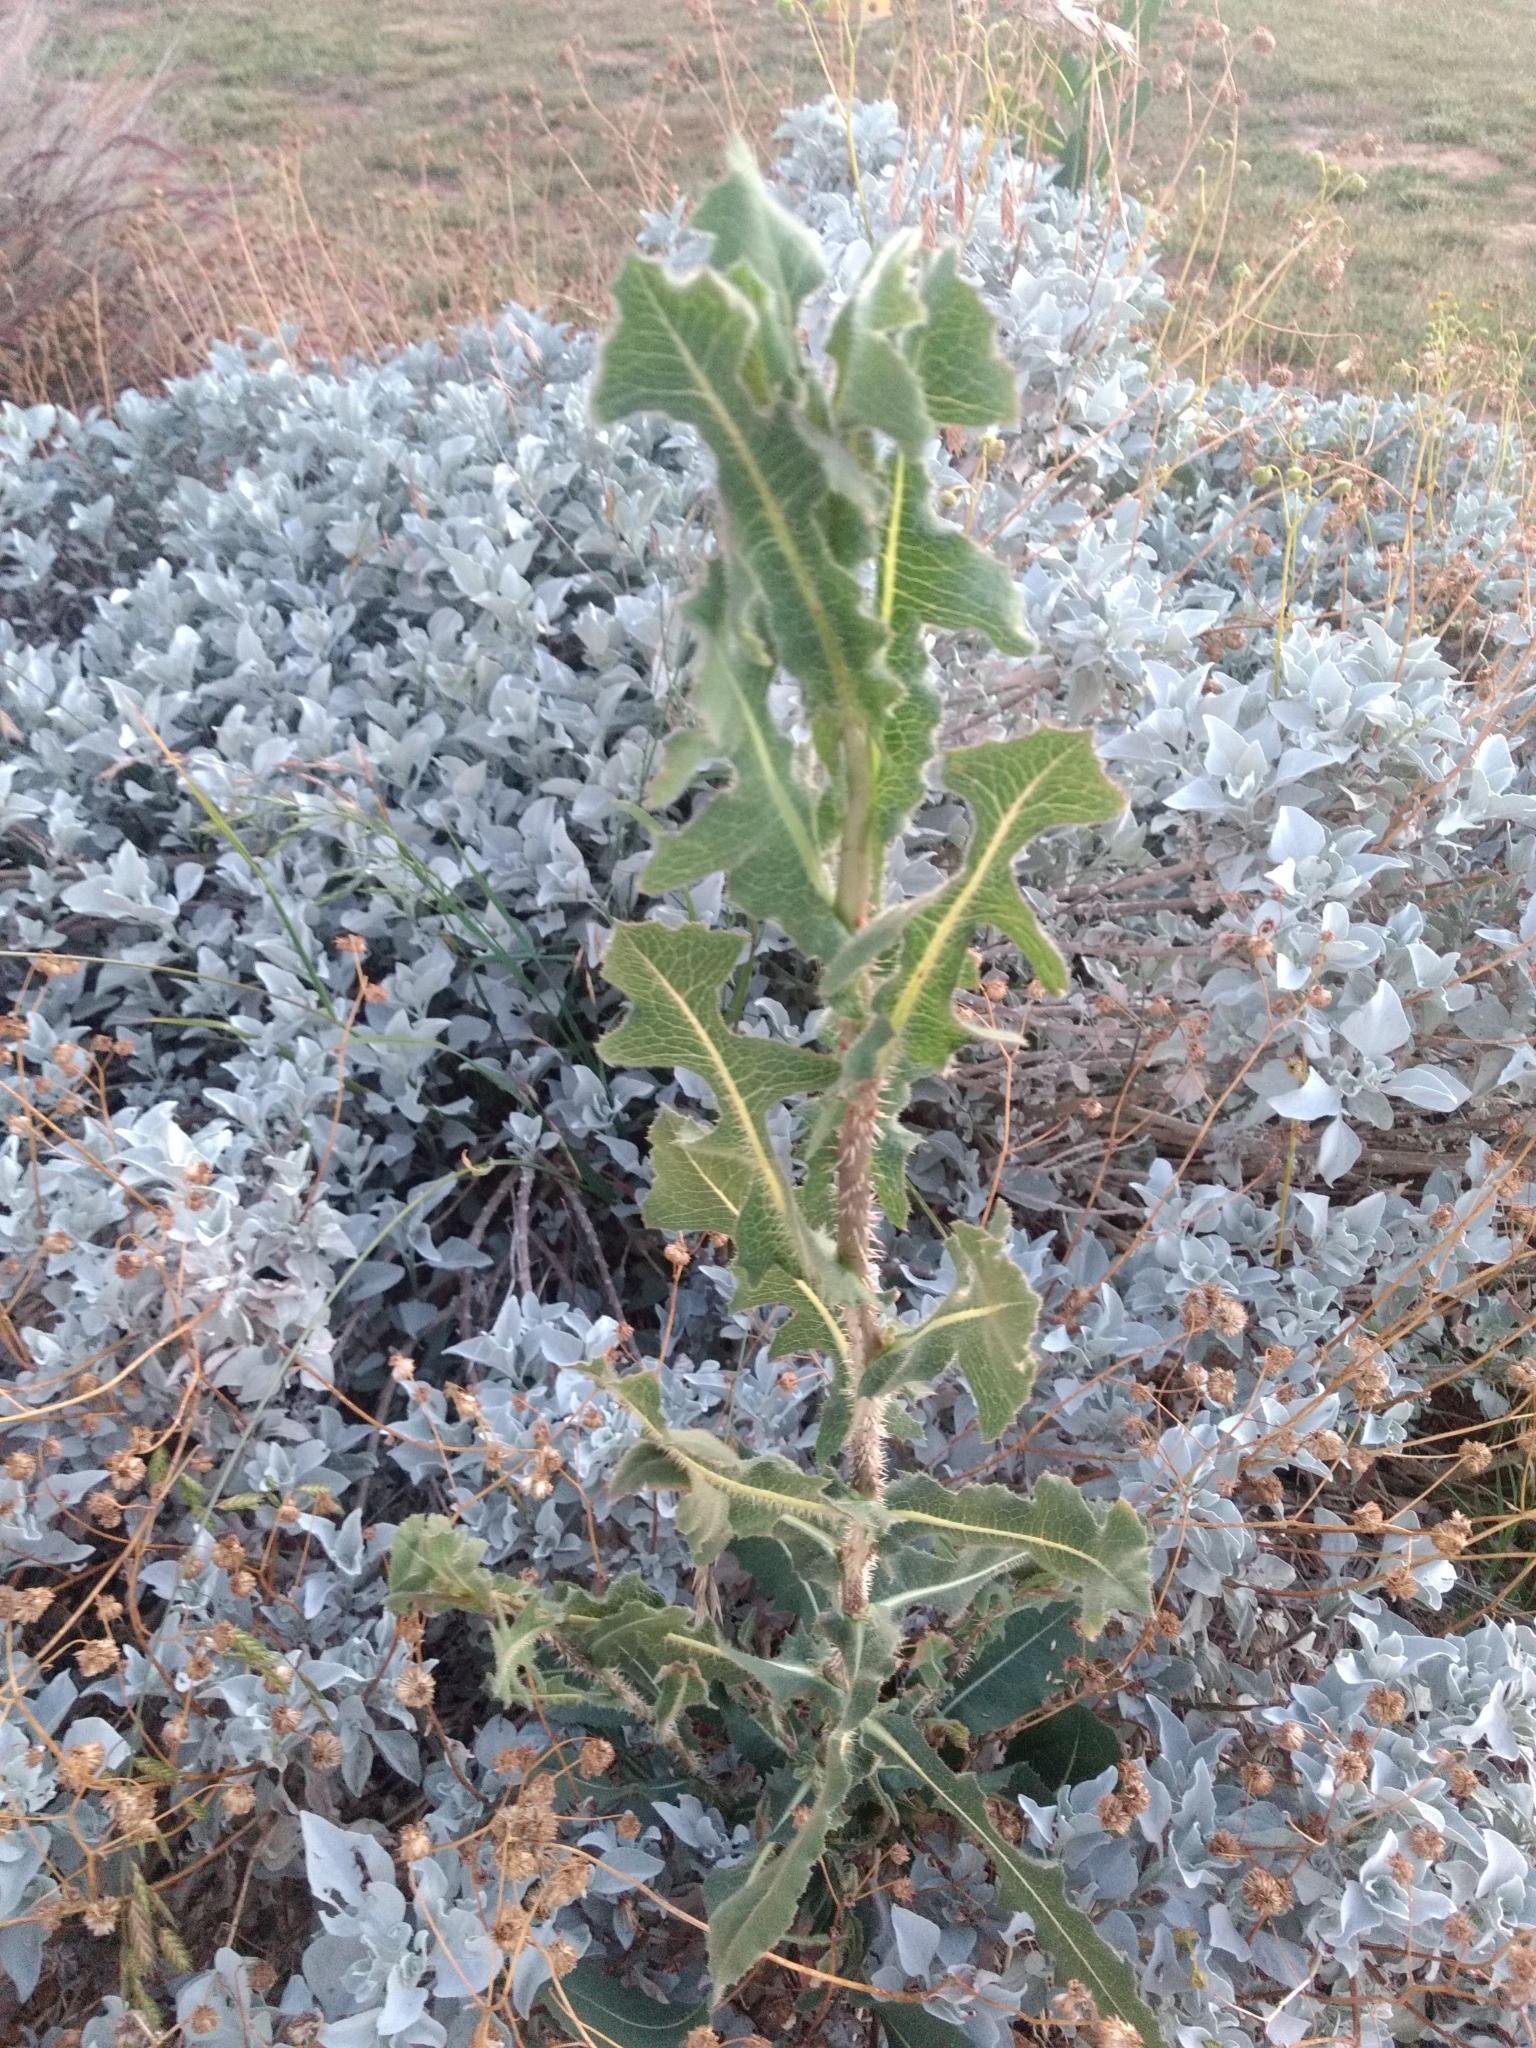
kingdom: Plantae
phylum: Tracheophyta
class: Magnoliopsida
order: Asterales
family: Asteraceae
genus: Lactuca
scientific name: Lactuca serriola
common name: Prickly lettuce
